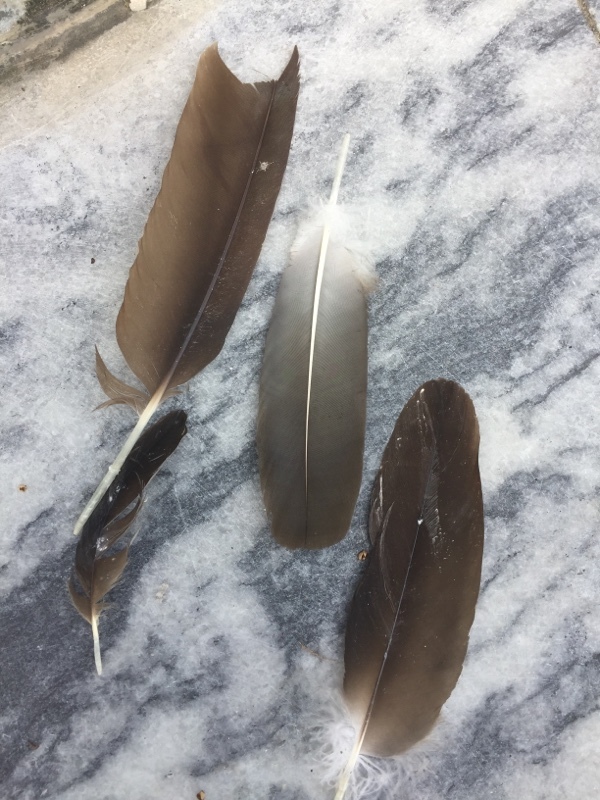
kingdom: Animalia
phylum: Chordata
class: Aves
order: Accipitriformes
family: Cathartidae
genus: Cathartes
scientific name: Cathartes aura
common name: Turkey vulture
